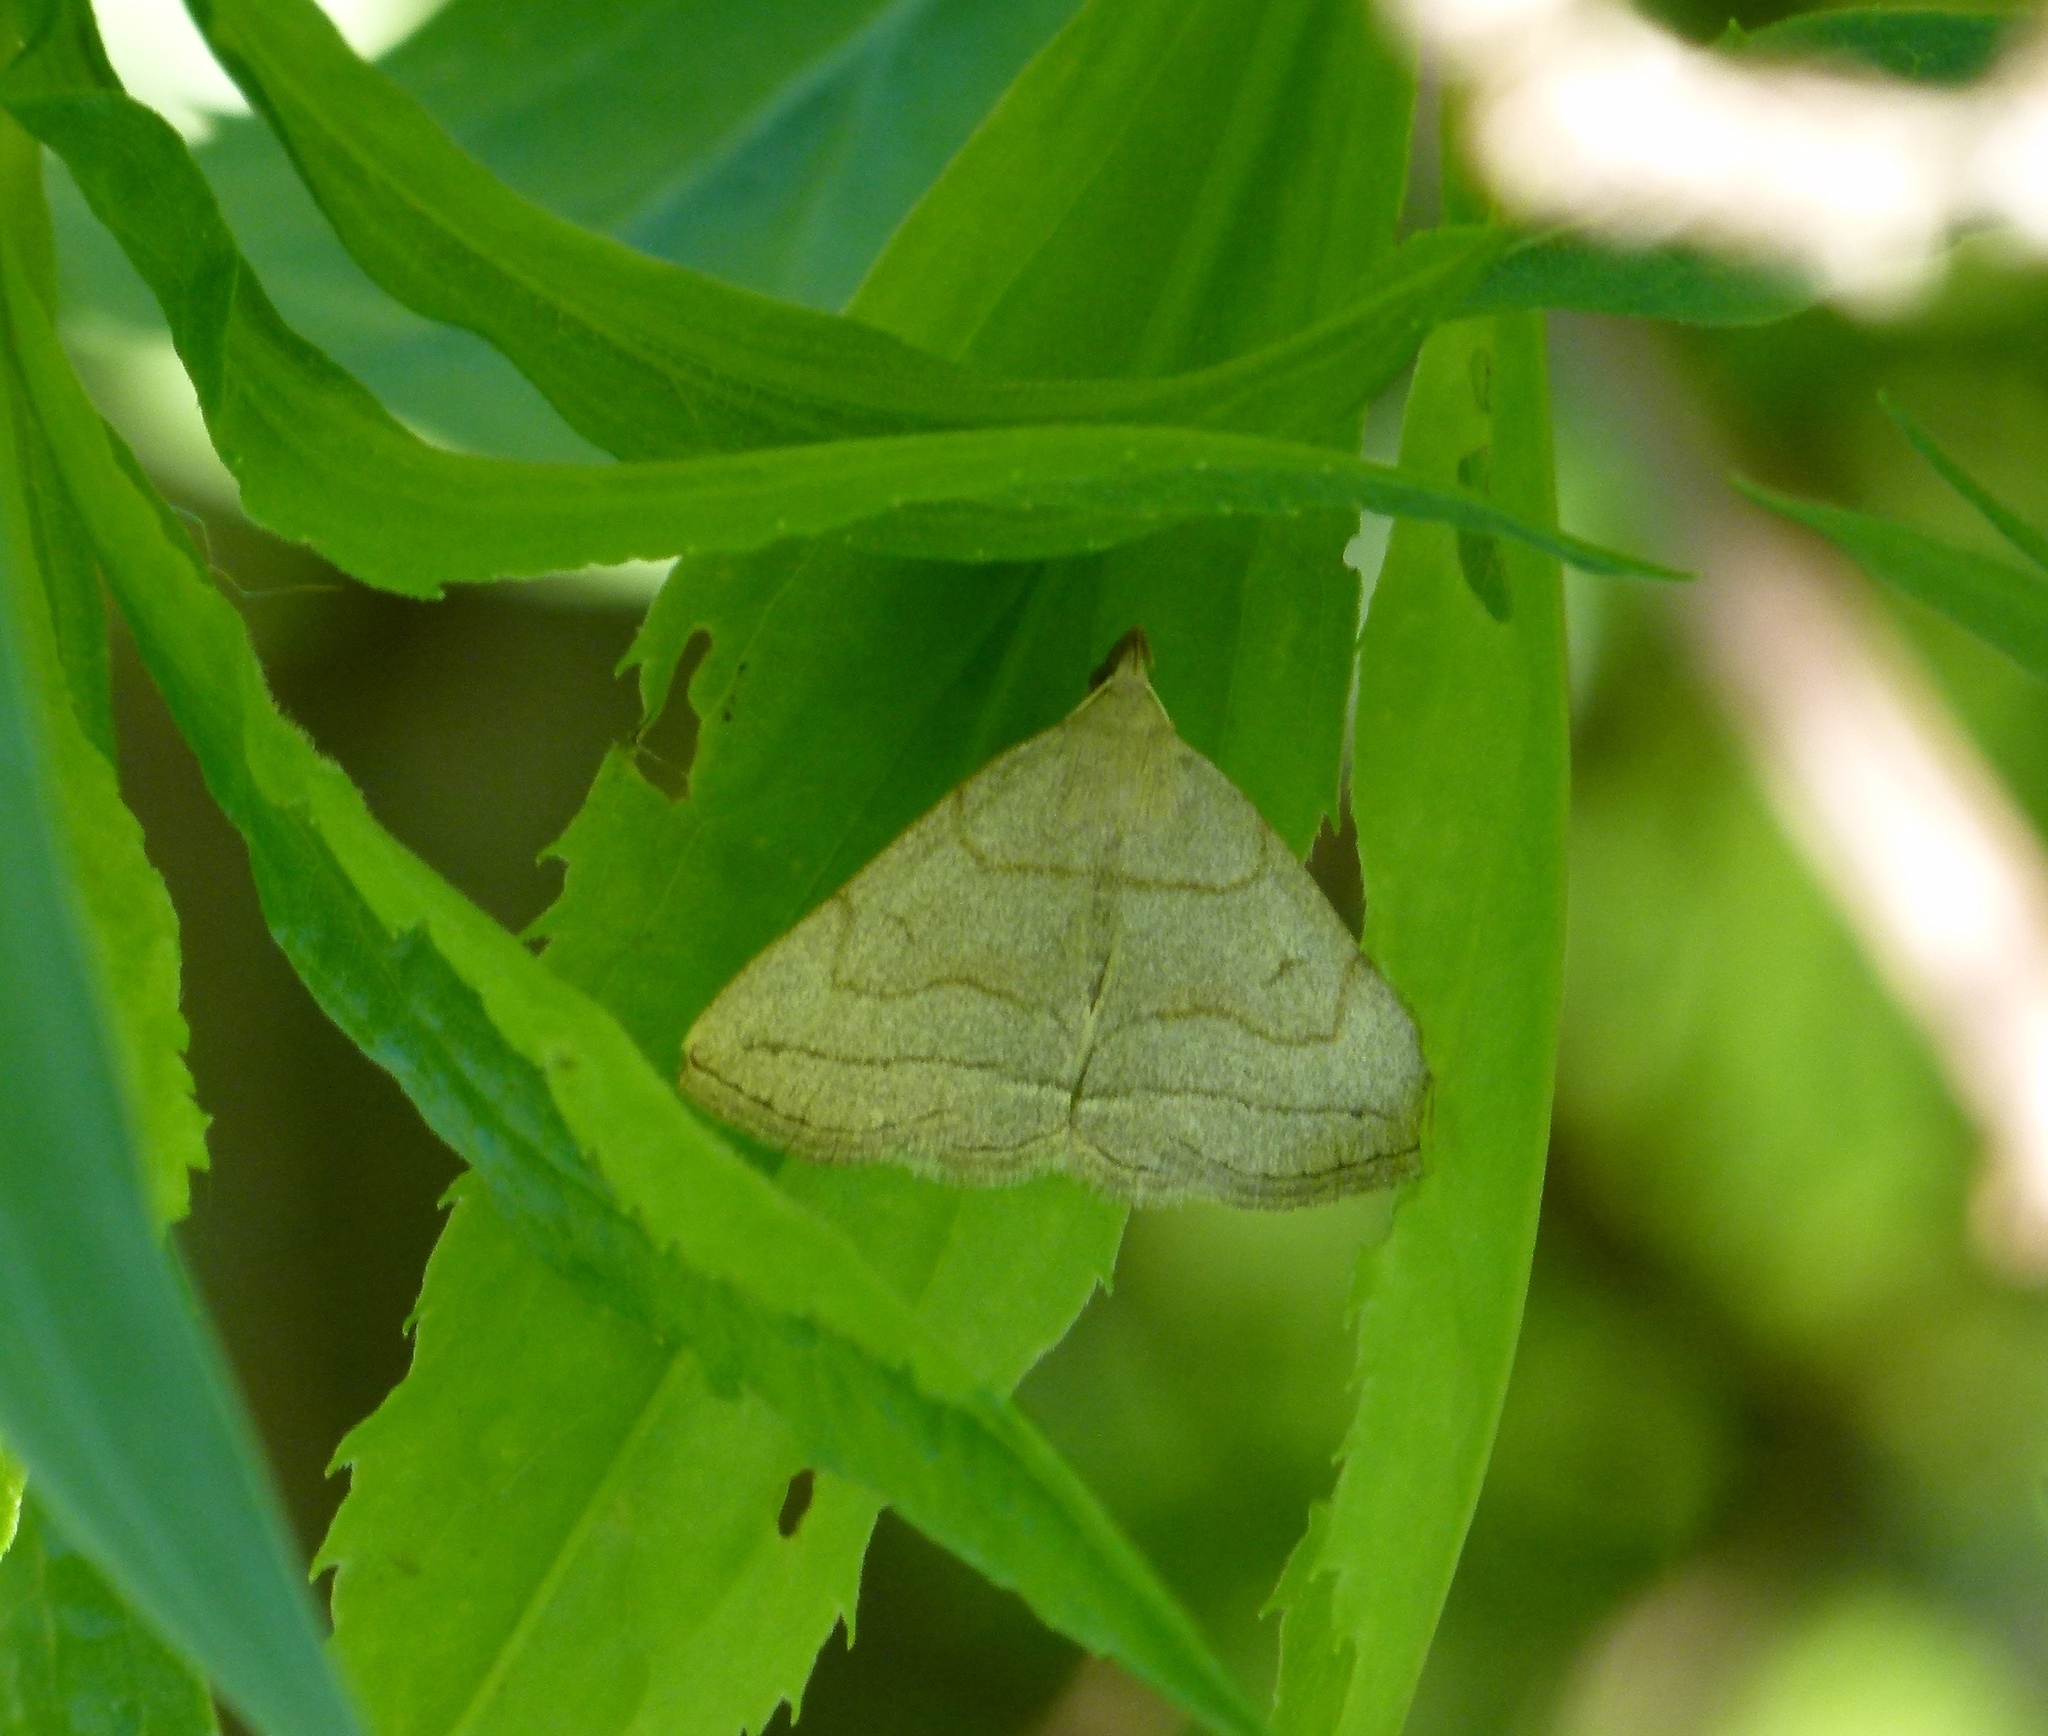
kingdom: Animalia
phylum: Arthropoda
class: Insecta
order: Lepidoptera
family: Erebidae
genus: Zanclognatha
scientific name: Zanclognatha pedipilalis
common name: Grayish fan-foot
